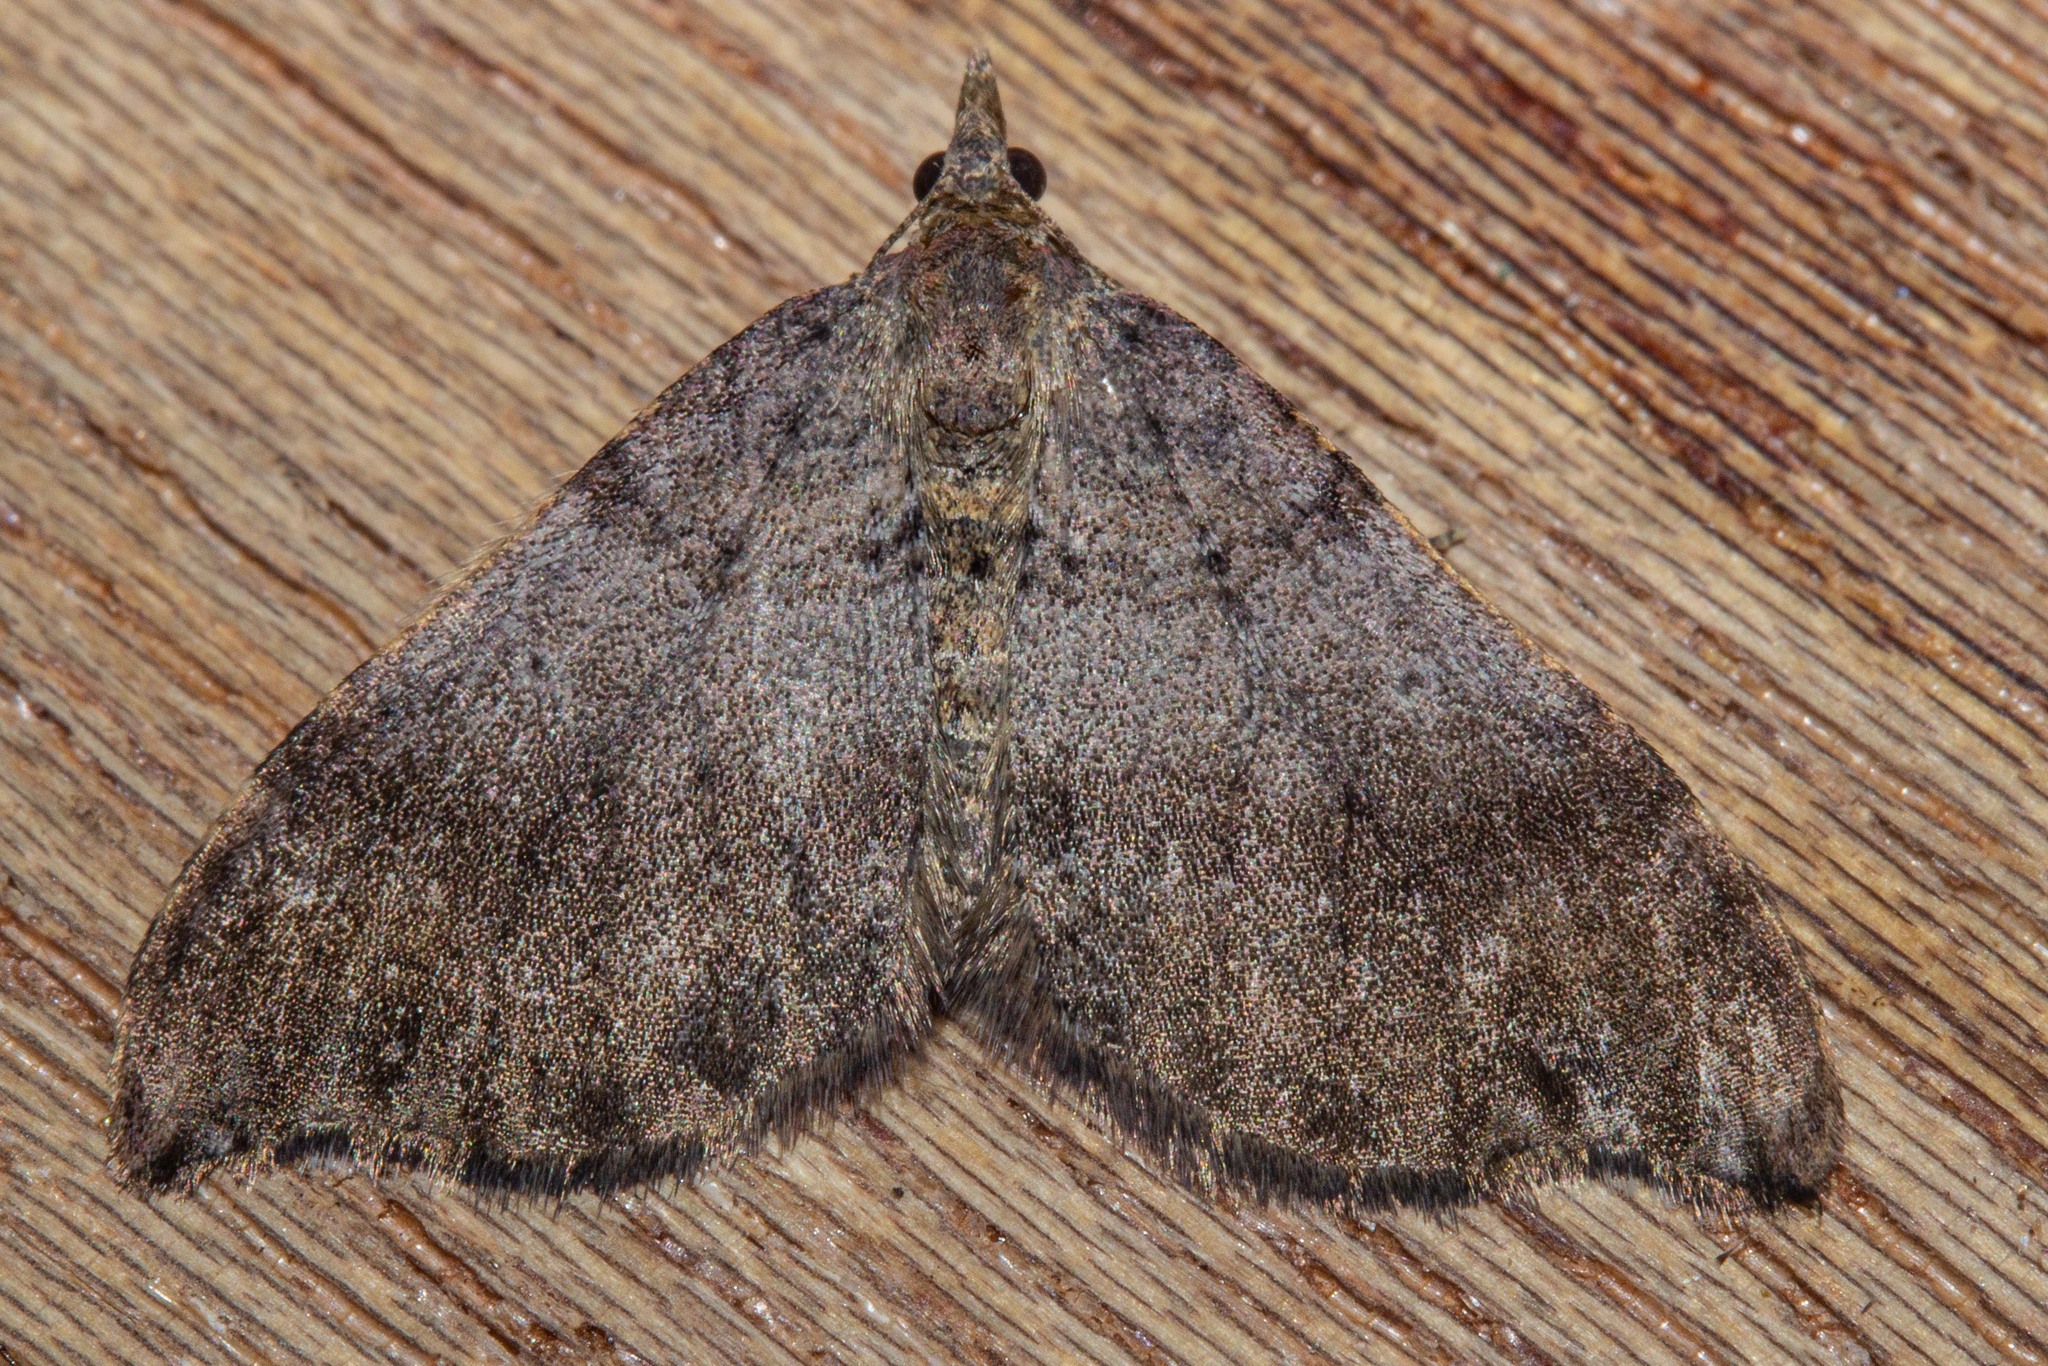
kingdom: Animalia
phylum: Arthropoda
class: Insecta
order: Lepidoptera
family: Geometridae
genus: Homodotis
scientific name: Homodotis falcata
